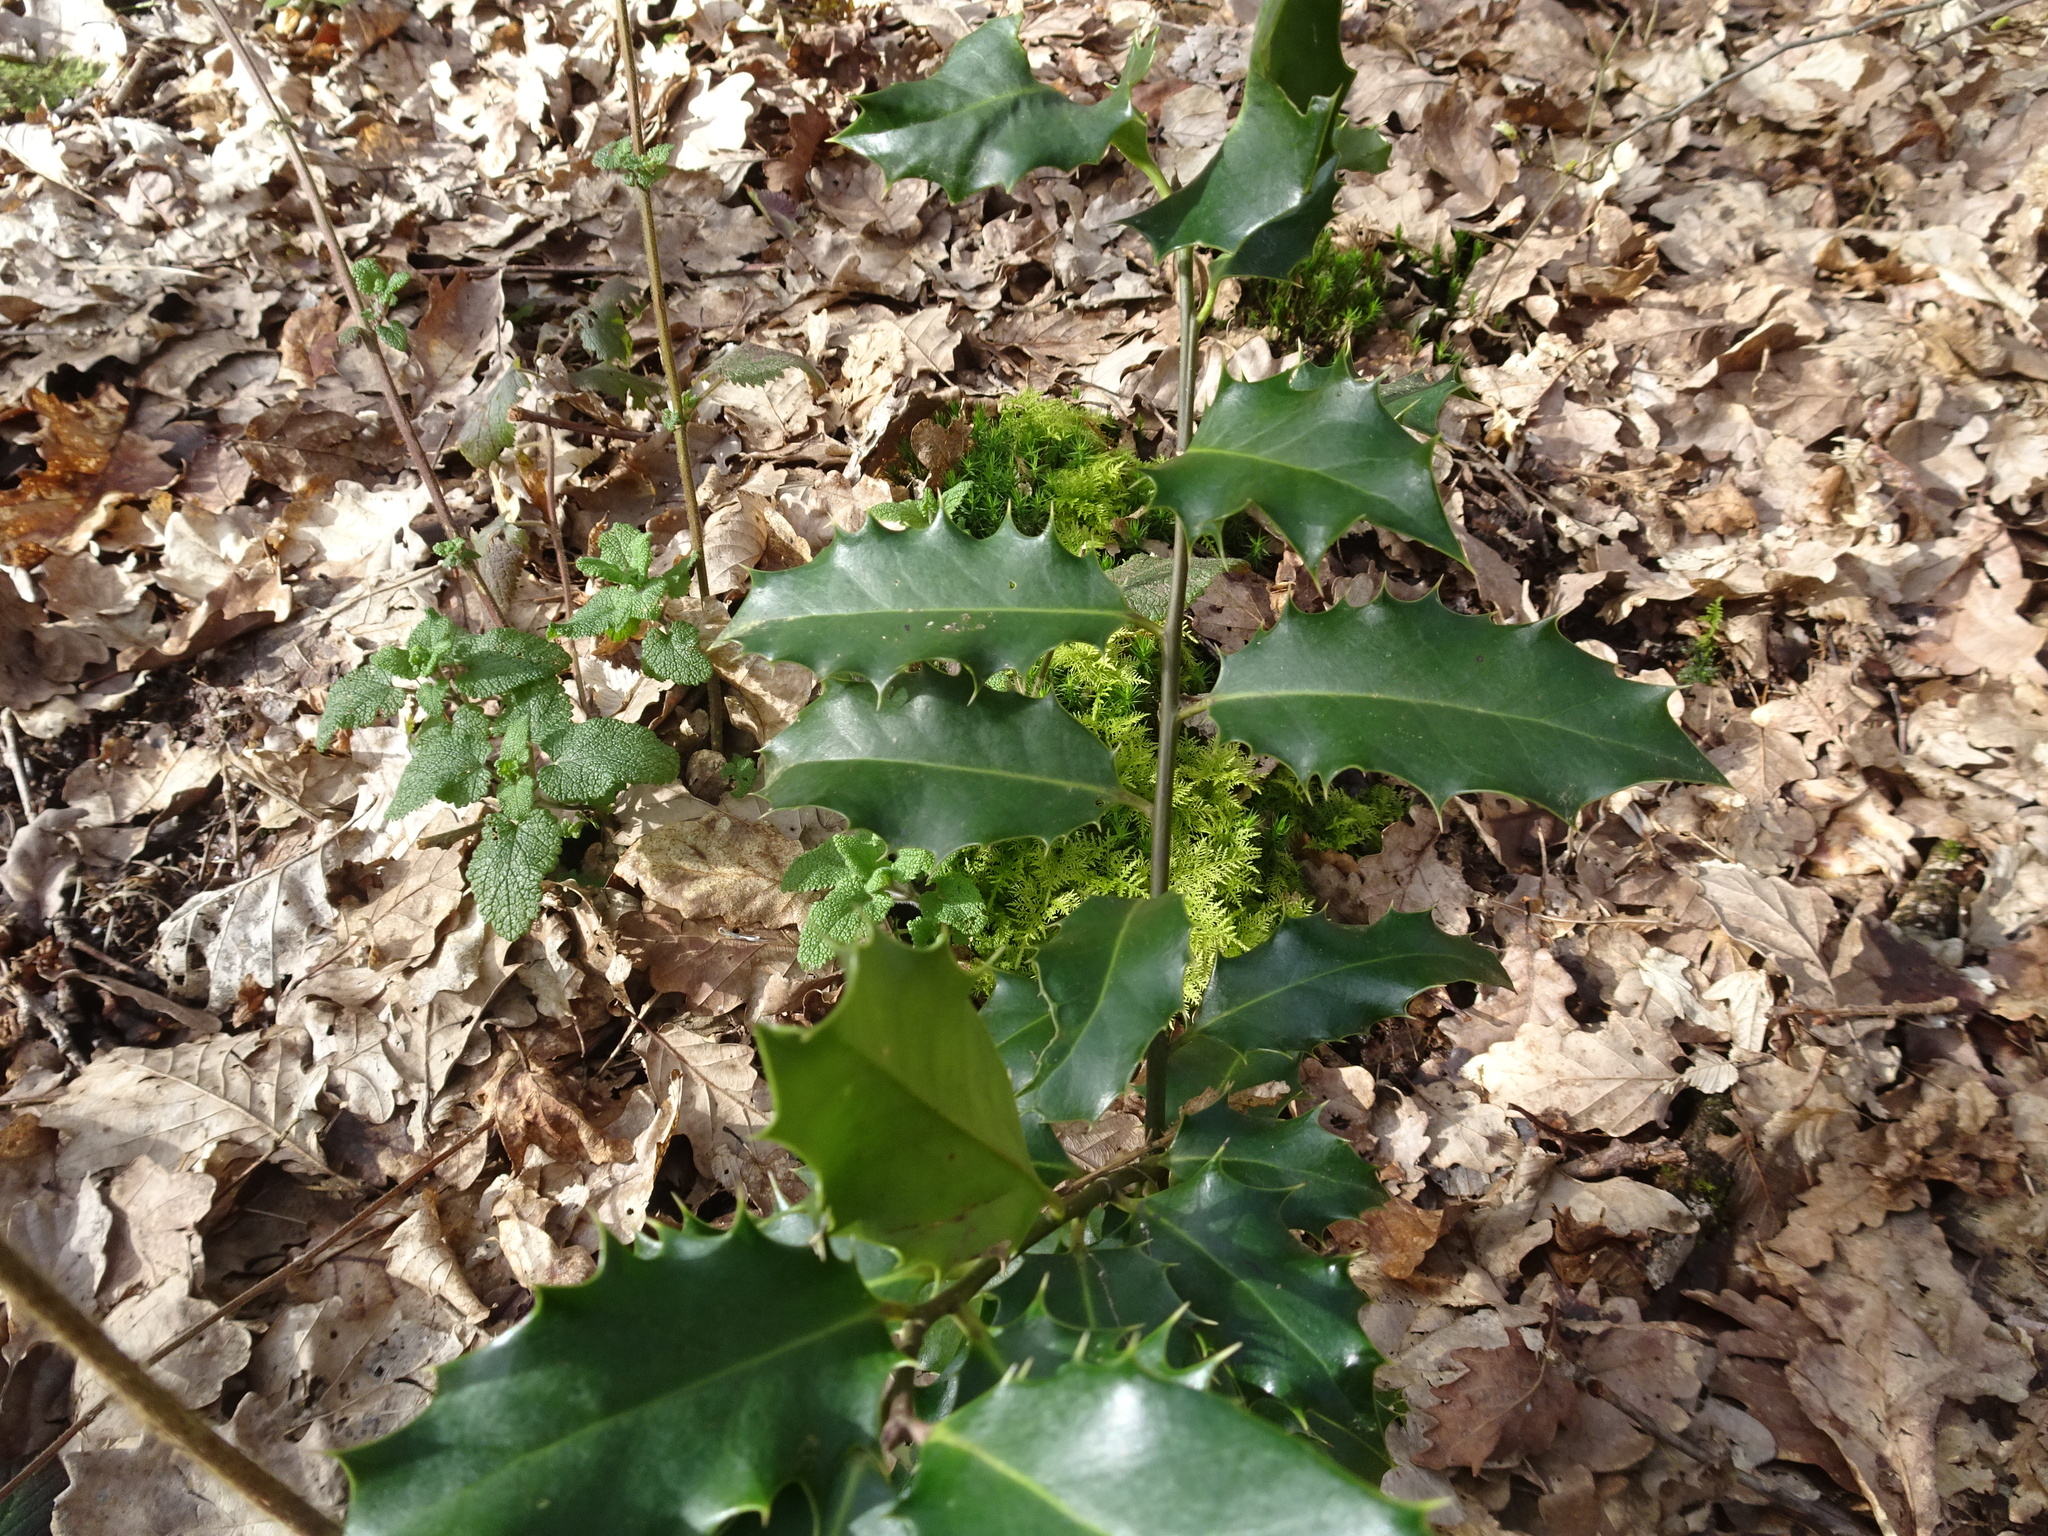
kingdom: Plantae
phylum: Tracheophyta
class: Magnoliopsida
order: Aquifoliales
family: Aquifoliaceae
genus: Ilex
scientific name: Ilex aquifolium
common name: English holly
